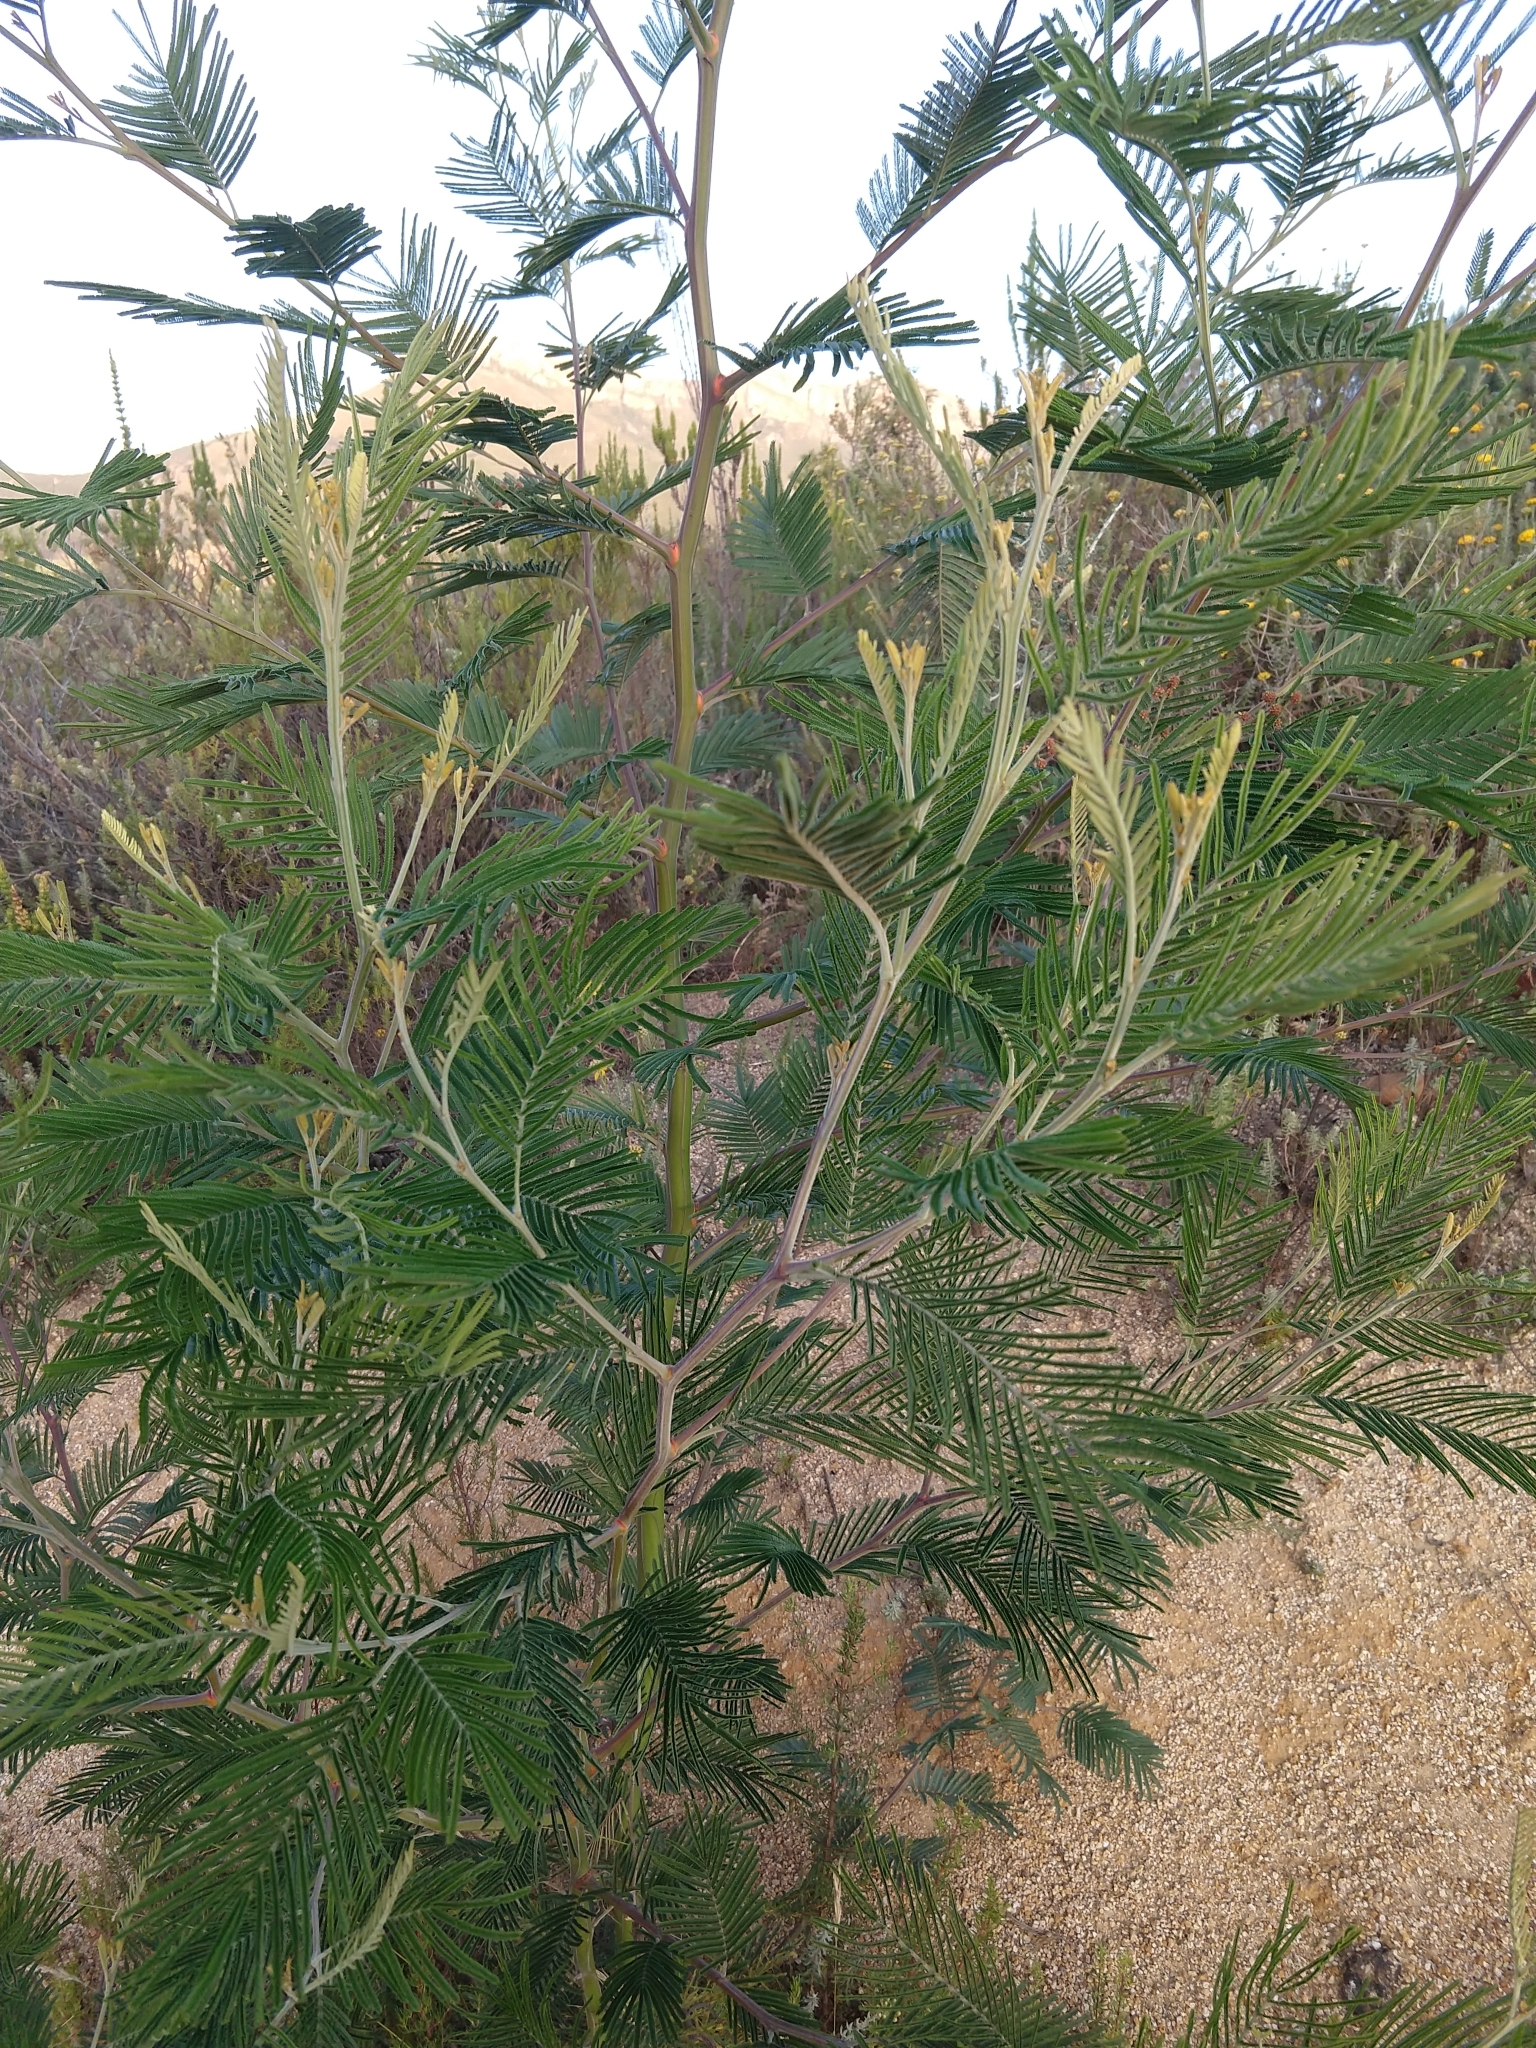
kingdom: Plantae
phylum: Tracheophyta
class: Magnoliopsida
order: Fabales
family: Fabaceae
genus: Acacia
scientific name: Acacia mearnsii
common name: Black wattle
